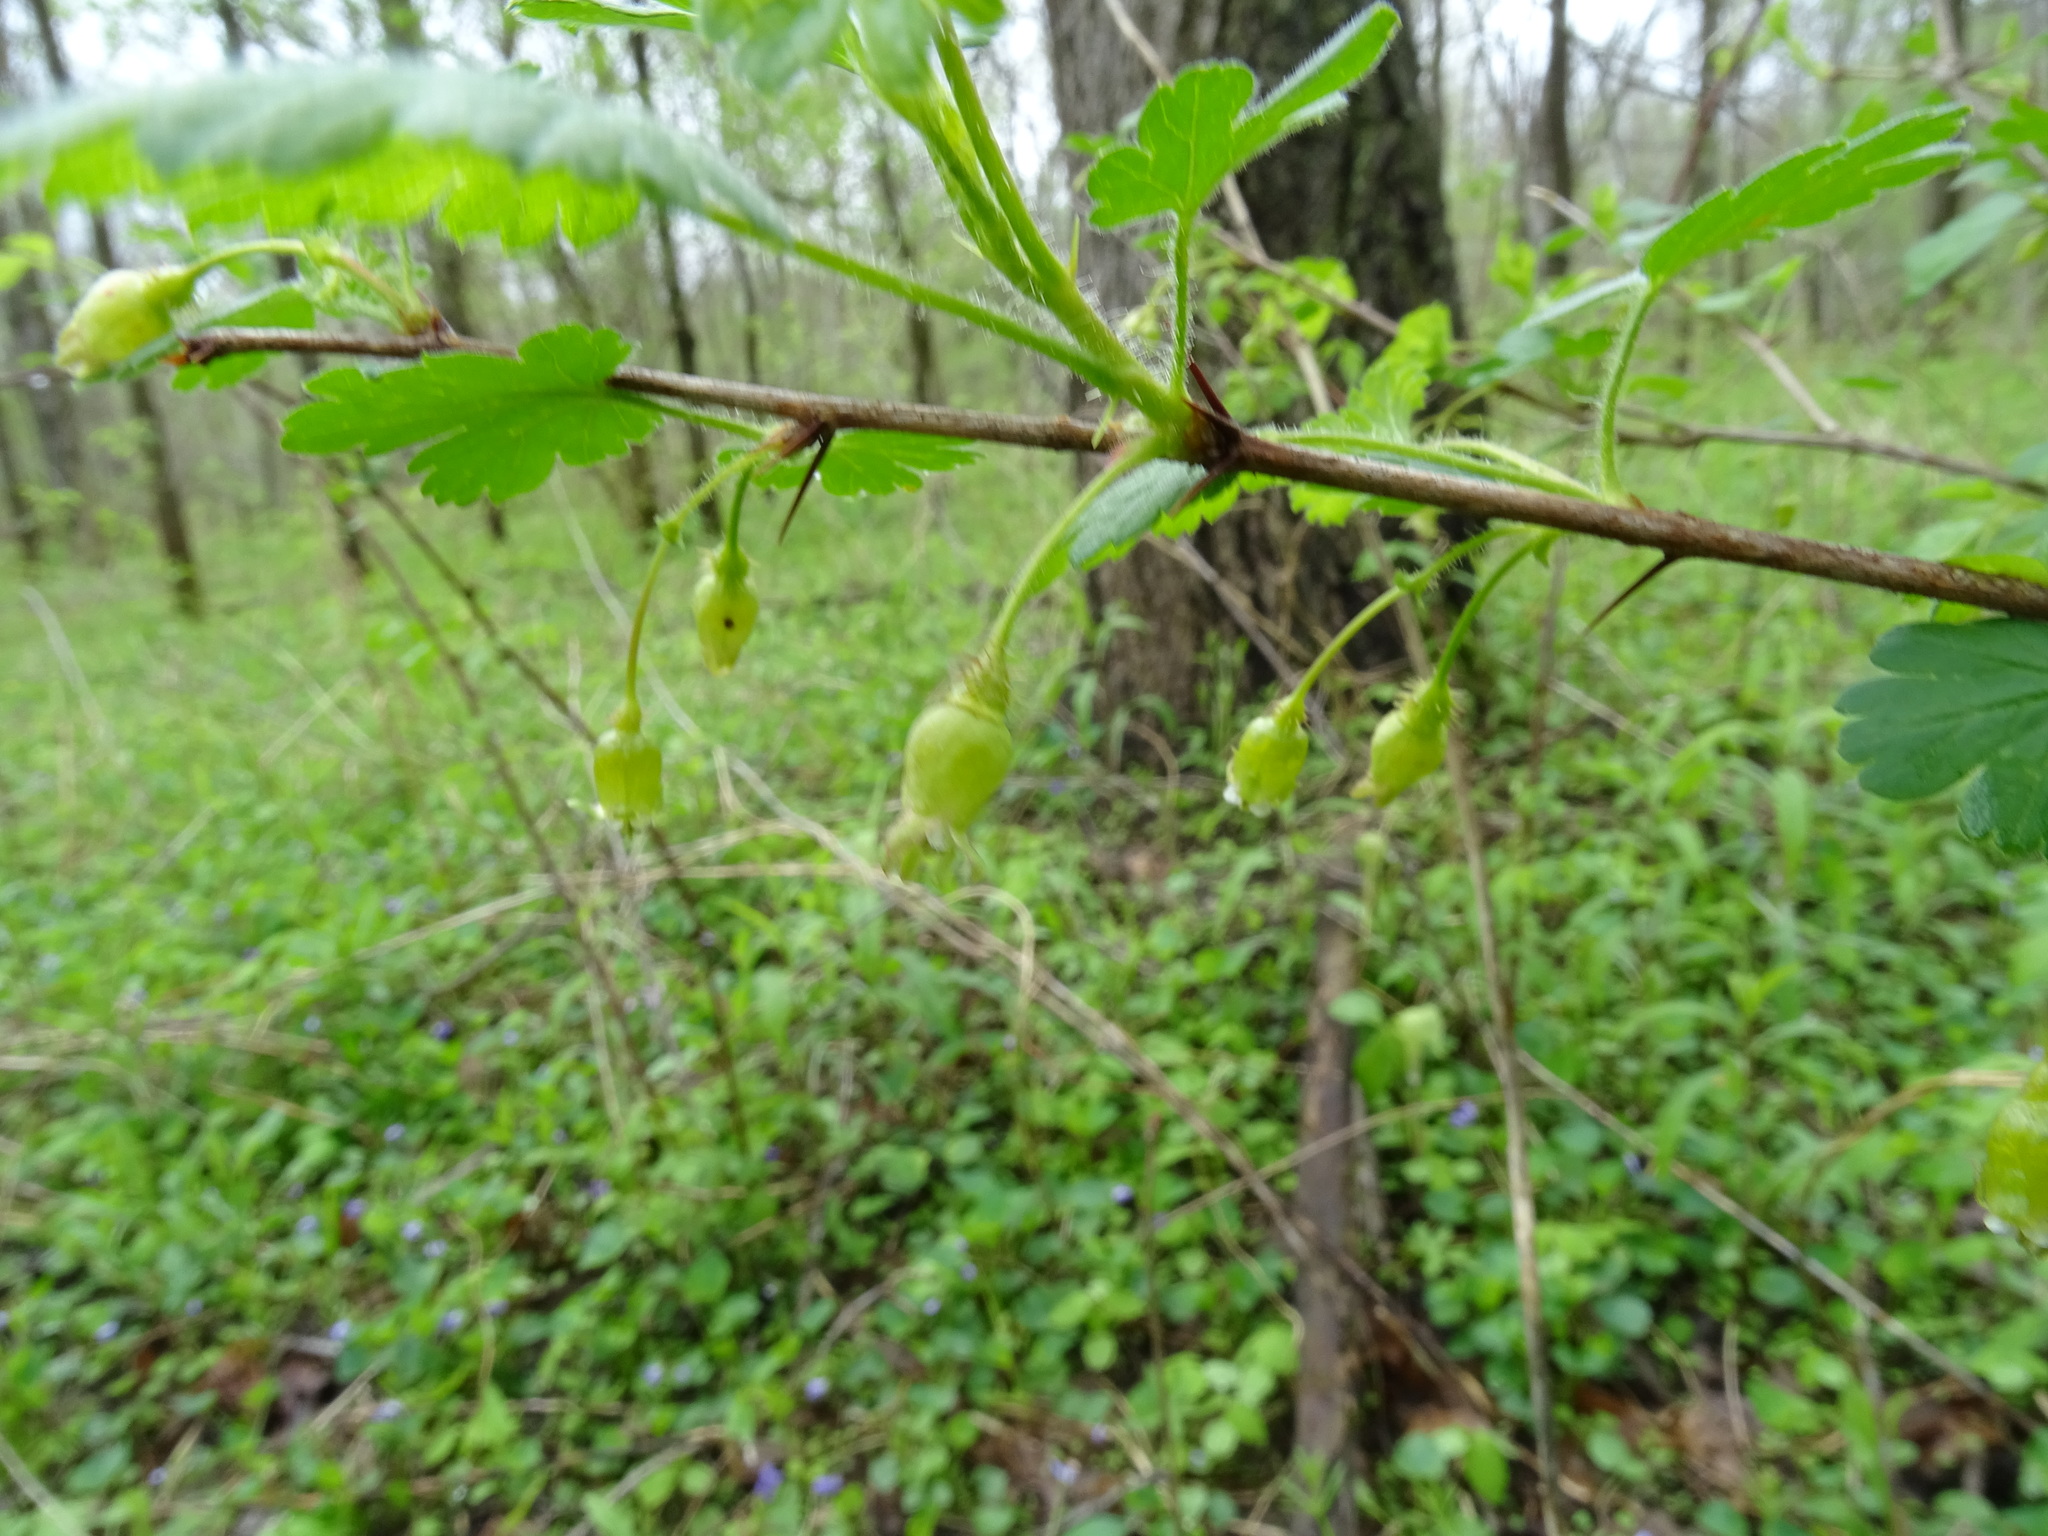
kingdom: Plantae
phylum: Tracheophyta
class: Magnoliopsida
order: Saxifragales
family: Grossulariaceae
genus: Ribes
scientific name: Ribes cynosbati
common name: American gooseberry
